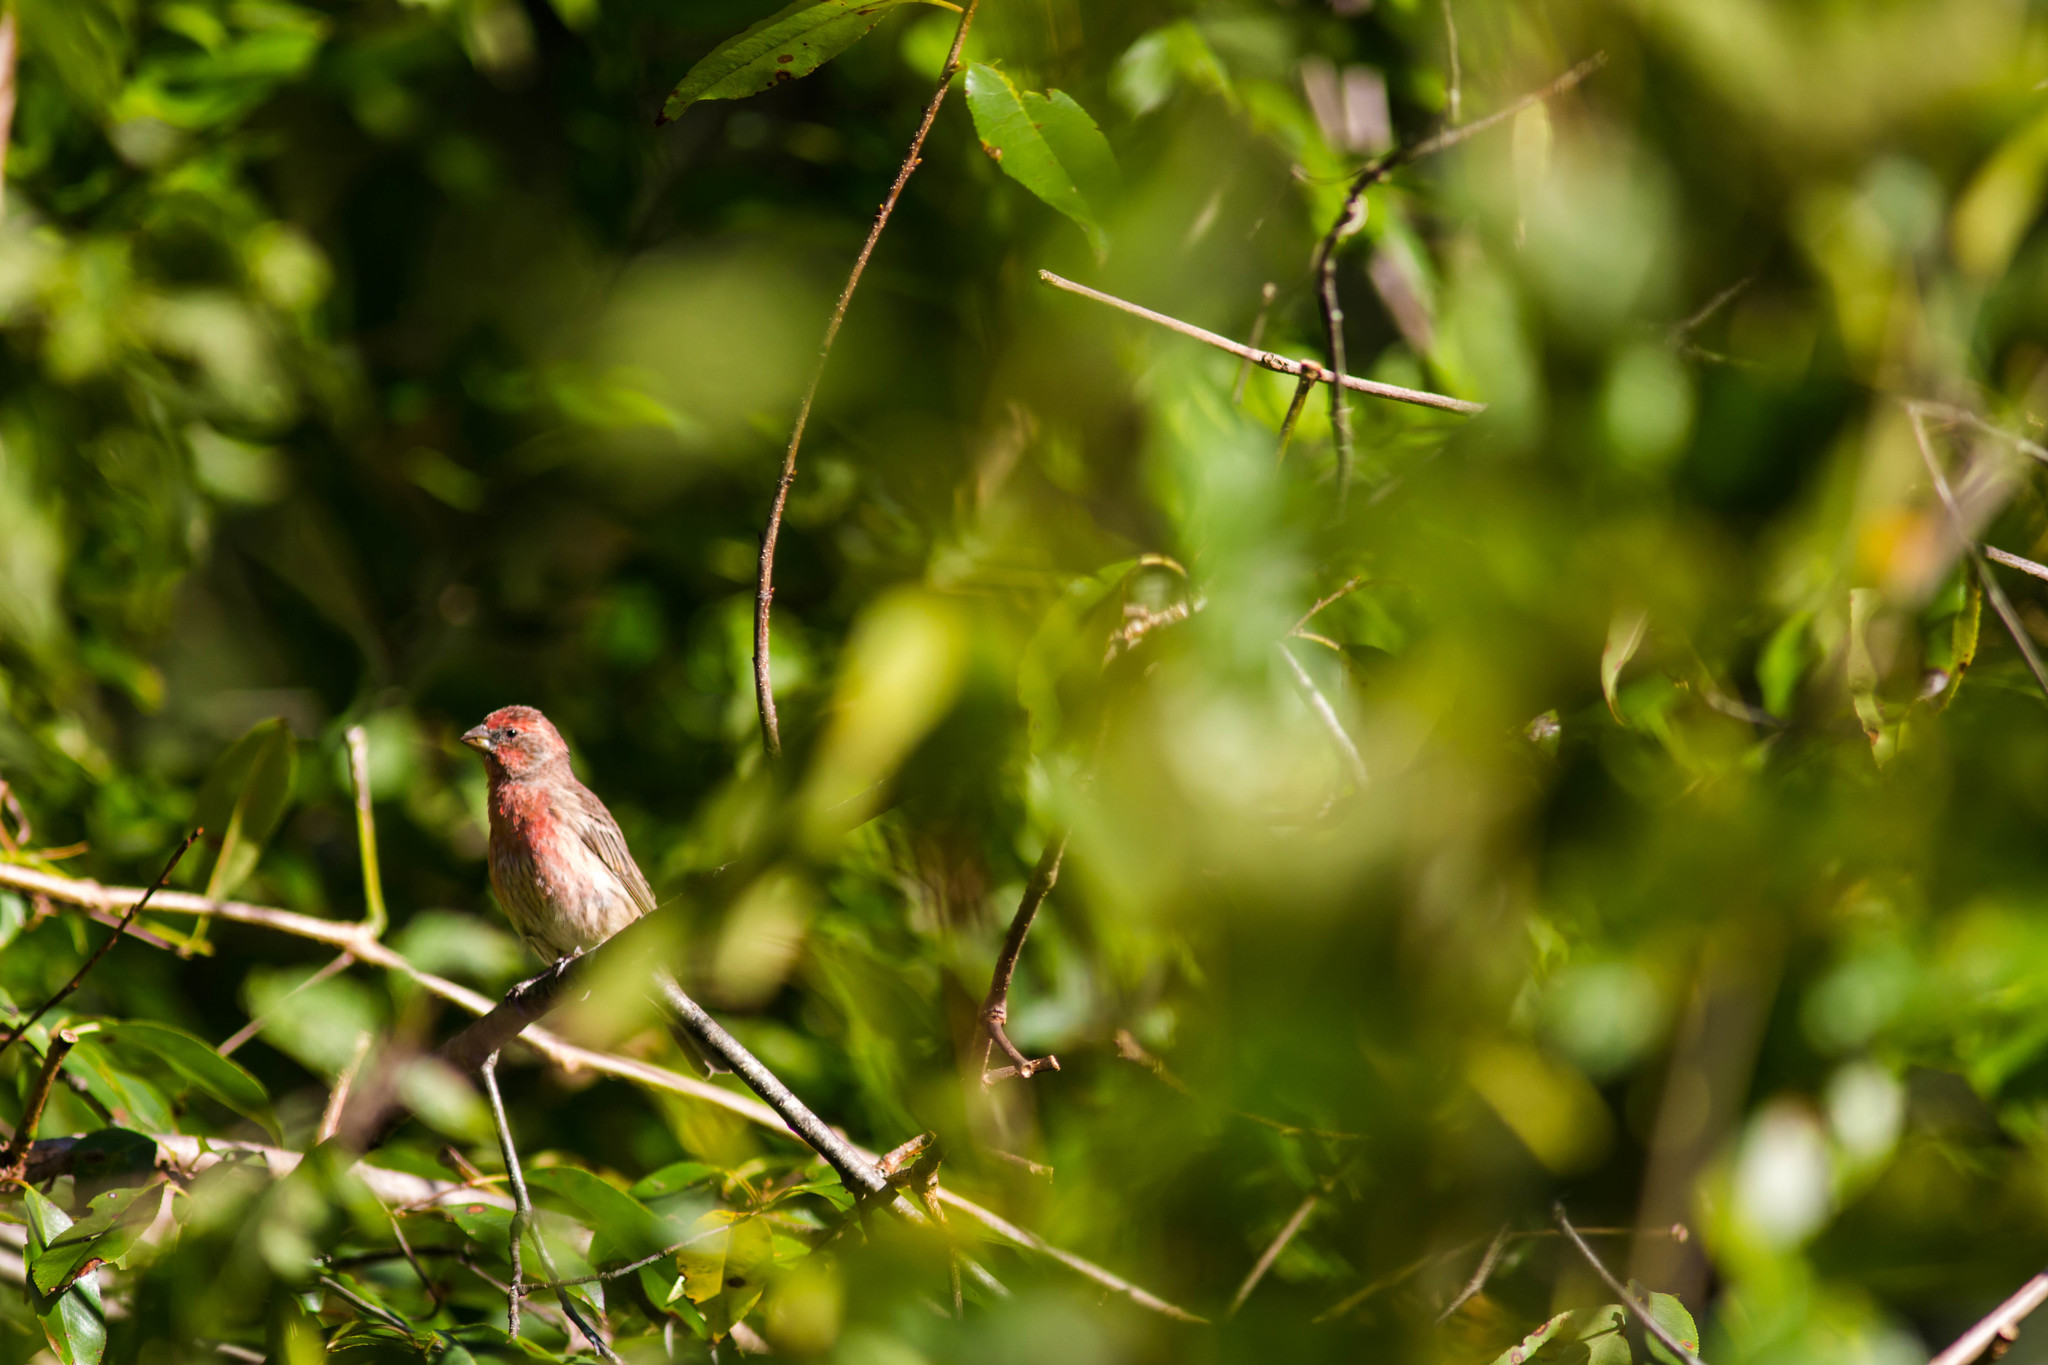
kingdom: Animalia
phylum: Chordata
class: Aves
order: Passeriformes
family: Fringillidae
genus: Haemorhous
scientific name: Haemorhous mexicanus
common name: House finch
